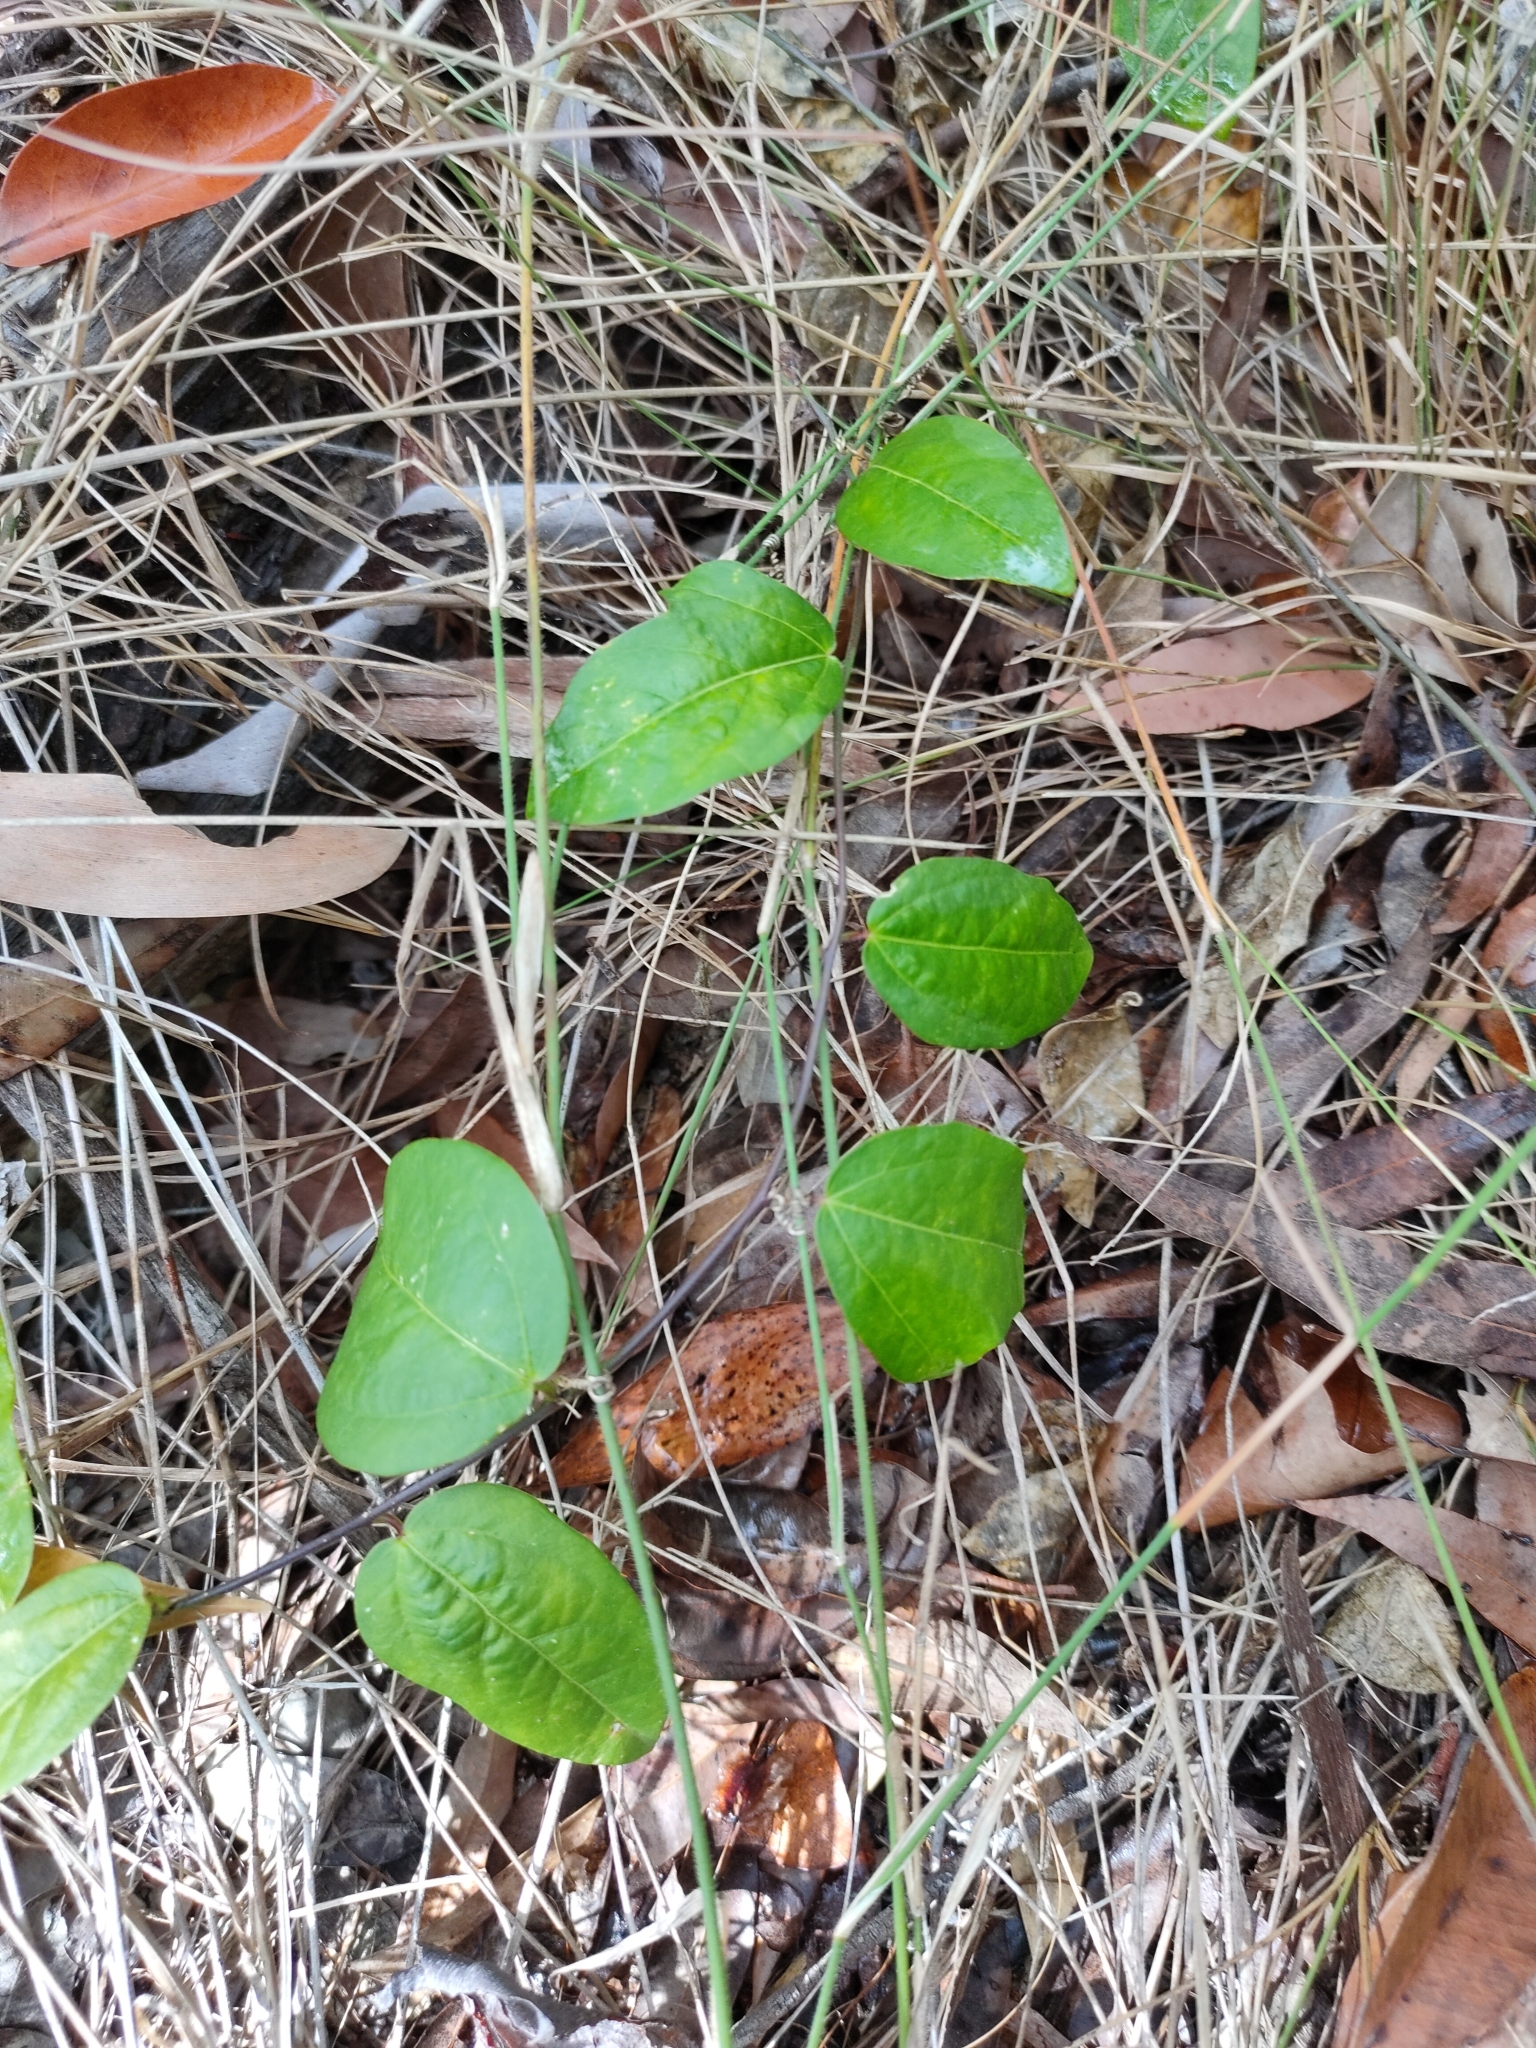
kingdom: Plantae
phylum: Tracheophyta
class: Magnoliopsida
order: Malpighiales
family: Passifloraceae
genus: Passiflora
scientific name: Passiflora pallida
